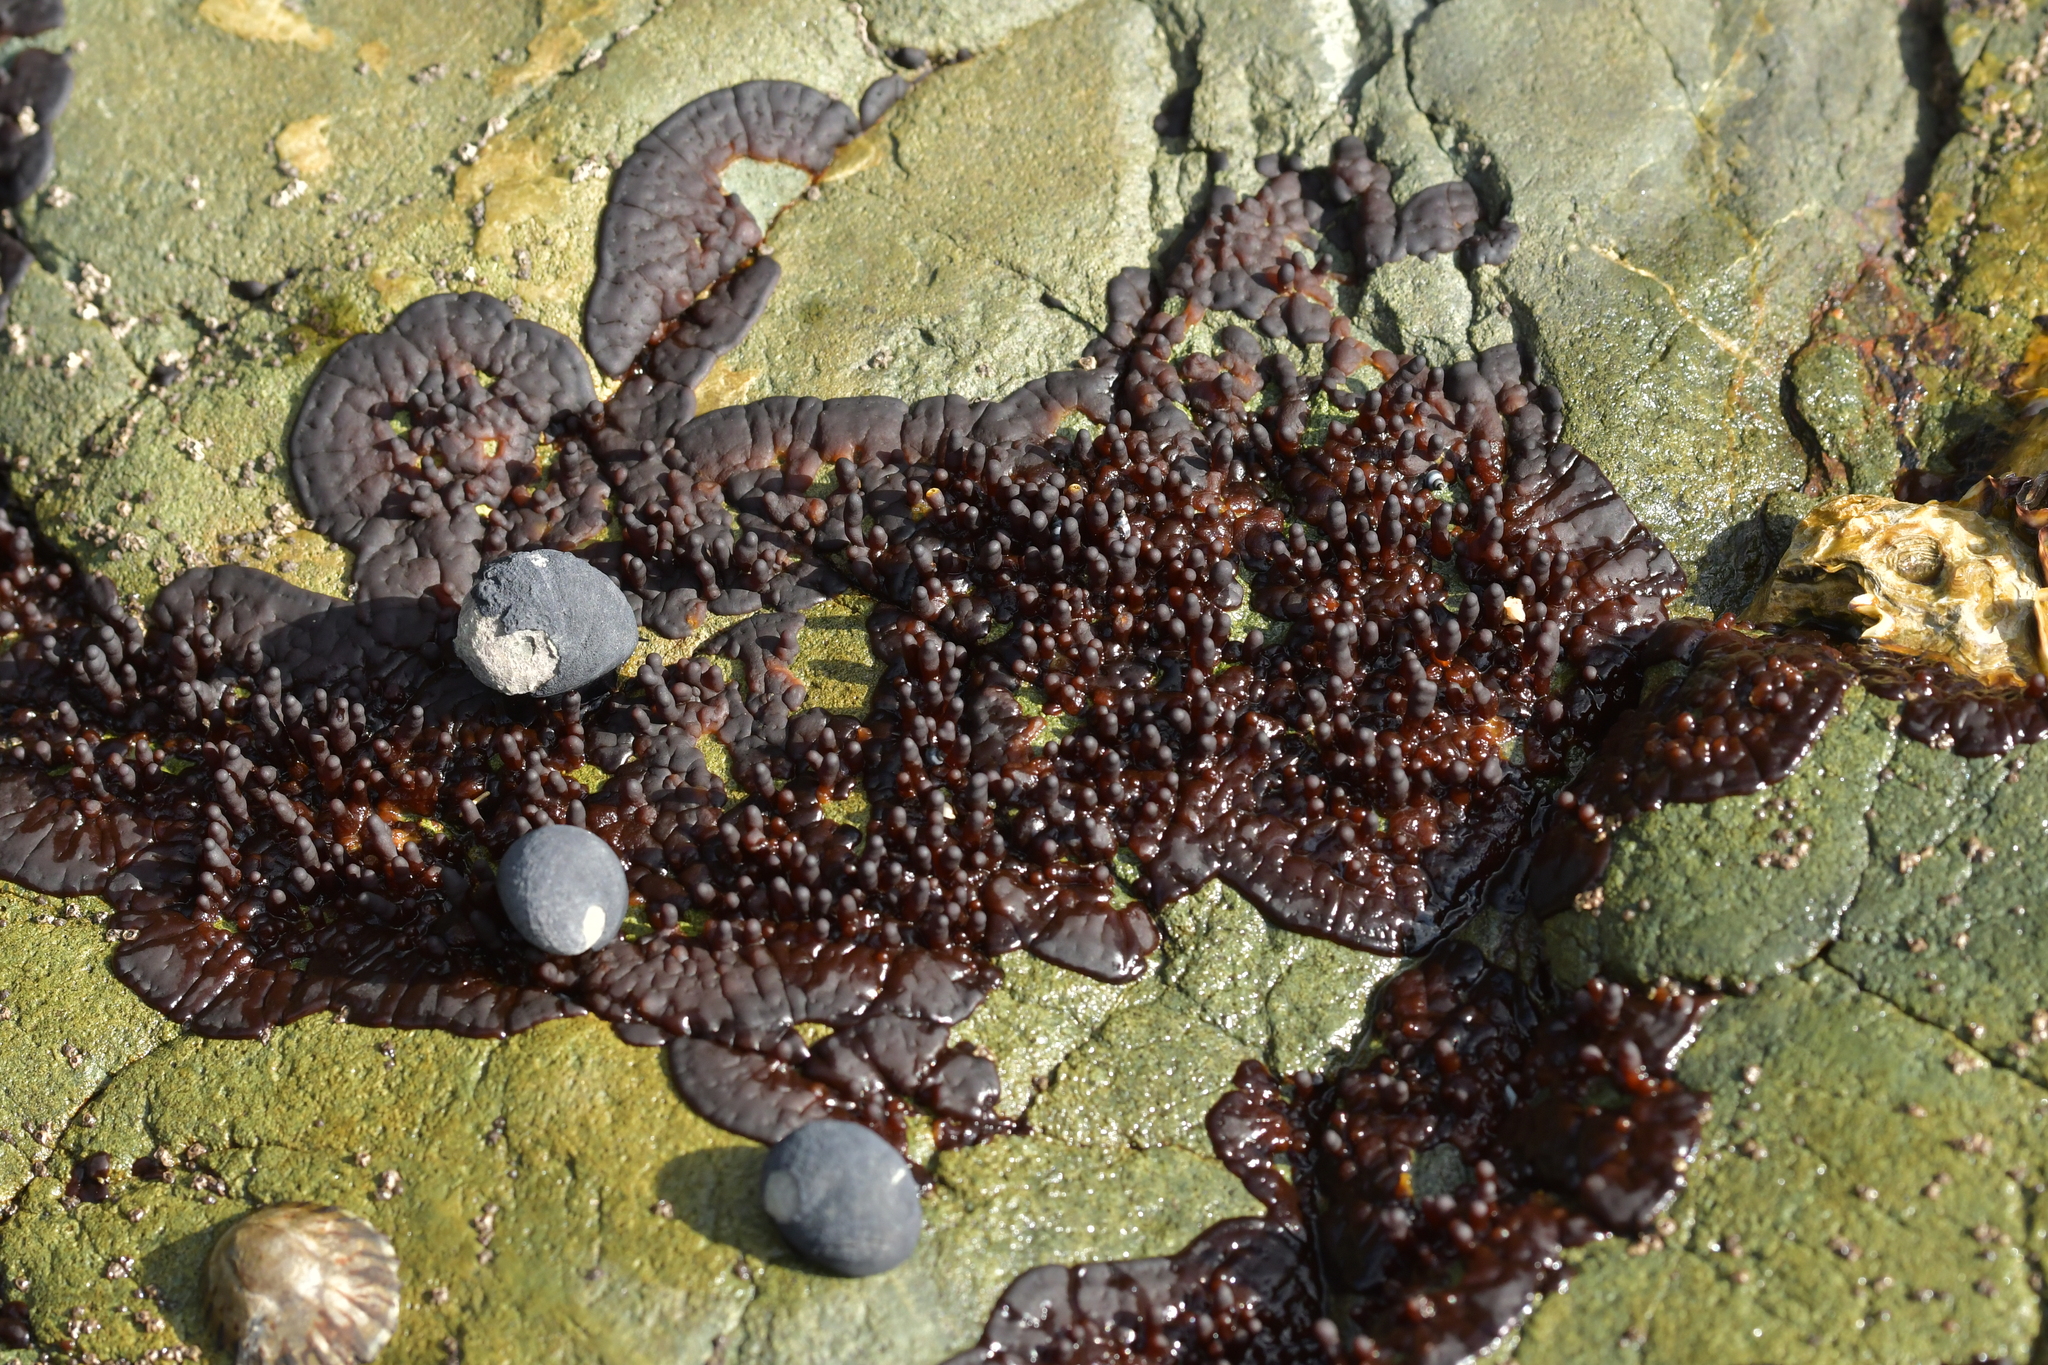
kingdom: Plantae
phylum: Rhodophyta
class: Florideophyceae
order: Hildenbrandiales
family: Hildenbrandiaceae
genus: Apophlaea
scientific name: Apophlaea sinclairii
